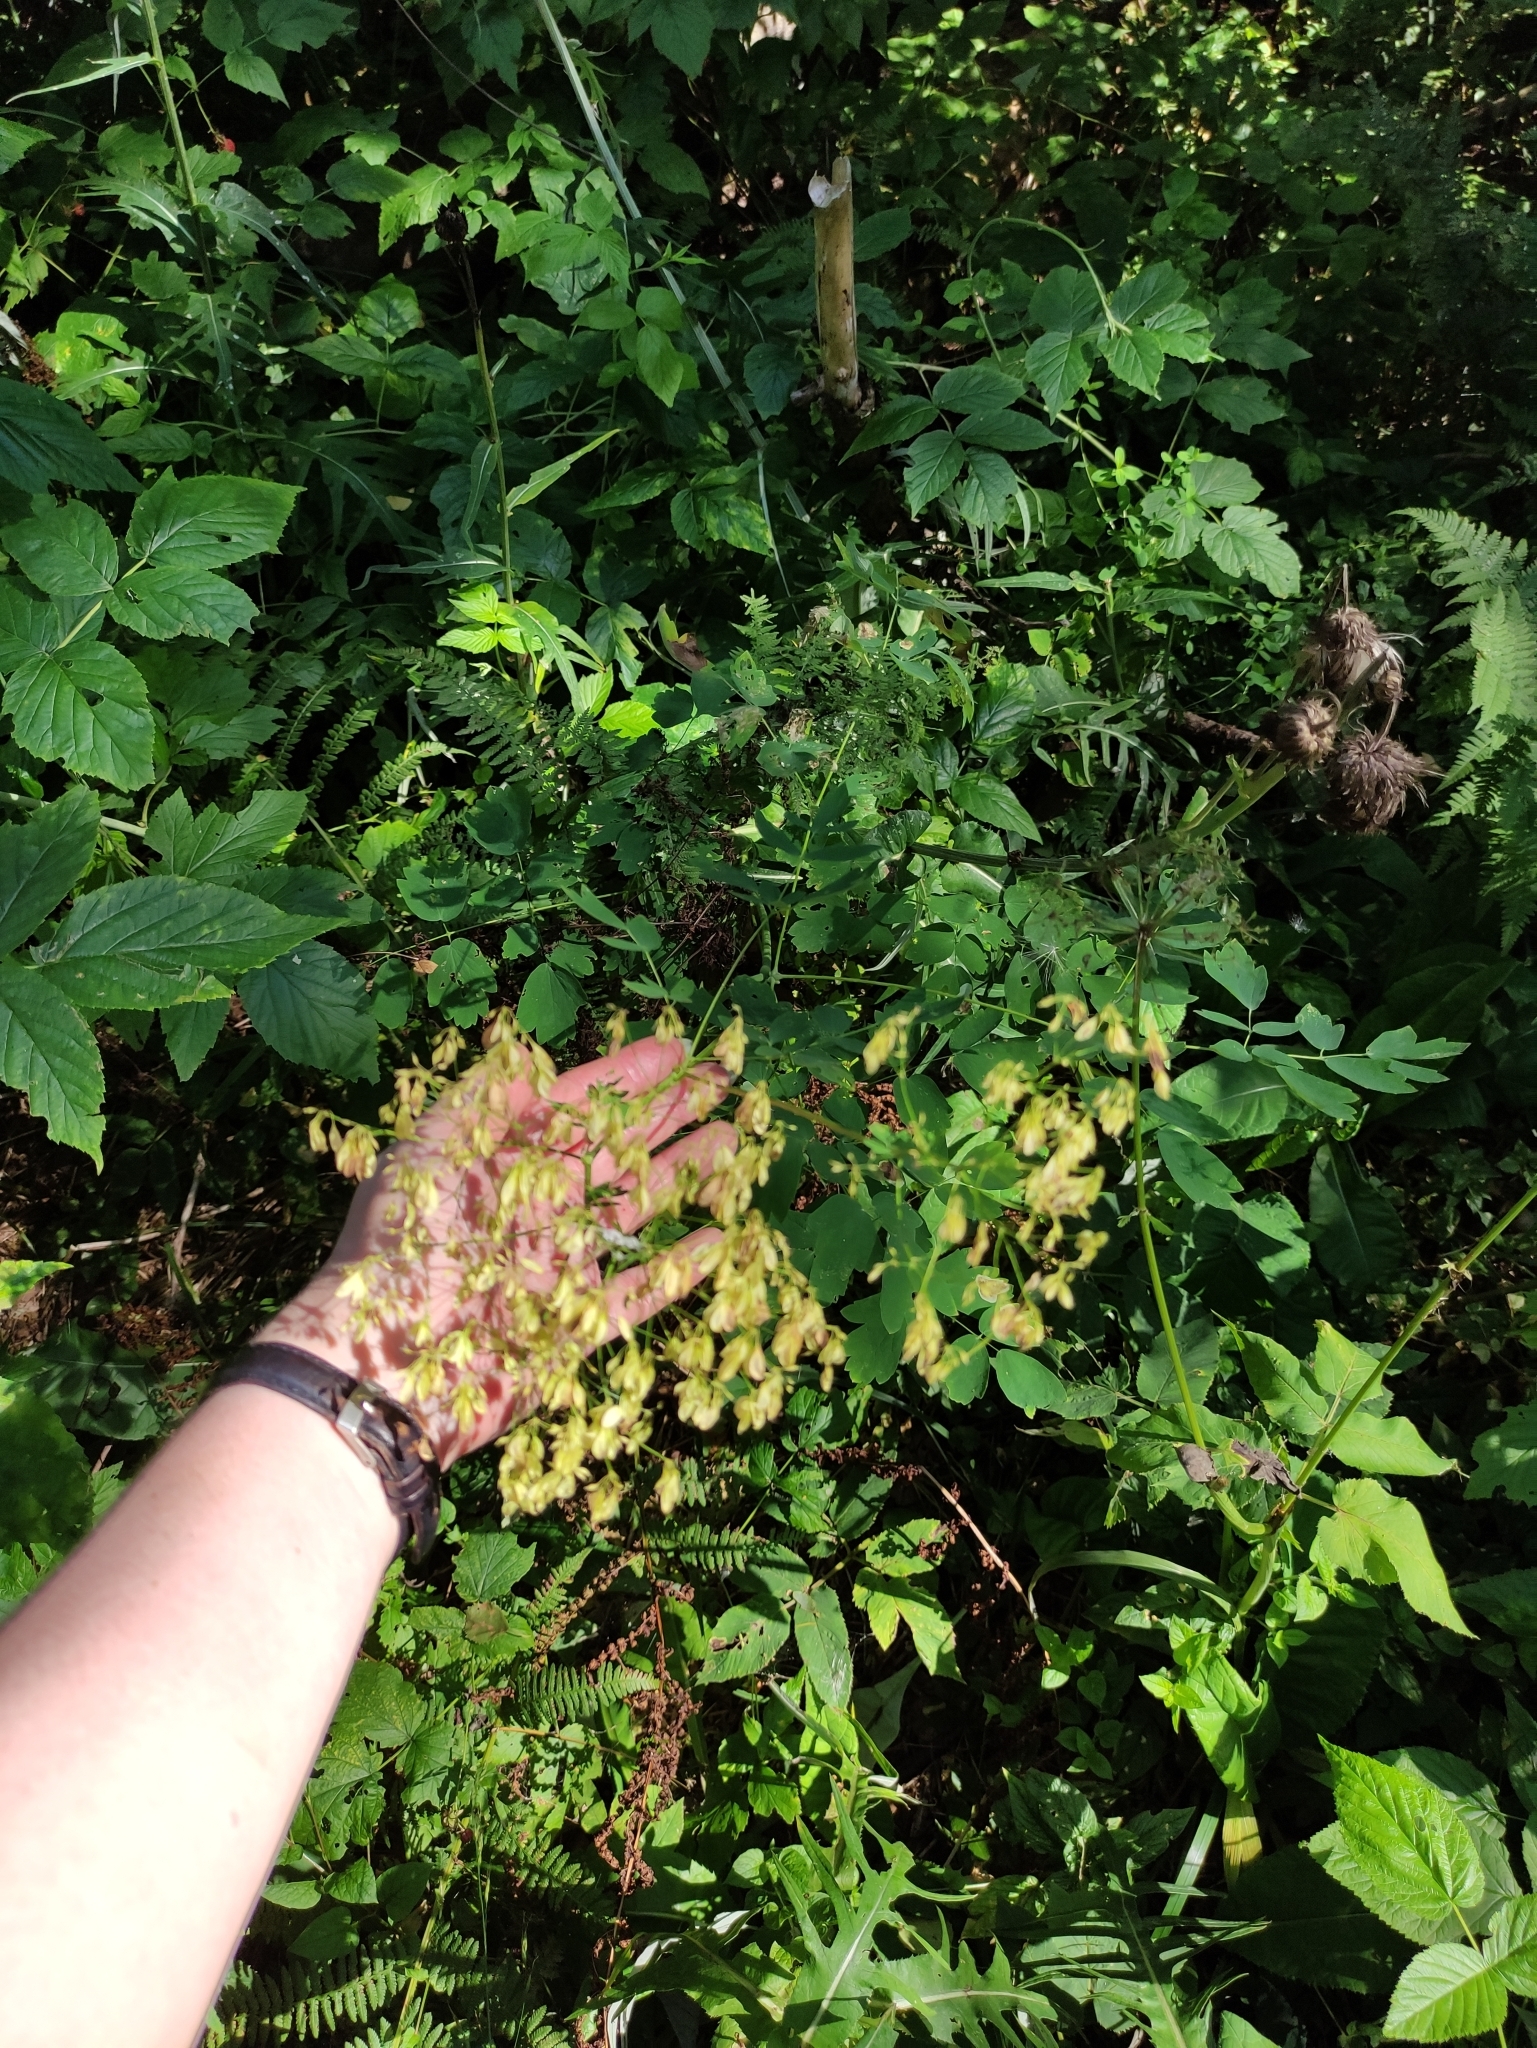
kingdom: Plantae
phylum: Tracheophyta
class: Magnoliopsida
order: Ranunculales
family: Ranunculaceae
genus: Thalictrum
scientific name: Thalictrum aquilegiifolium
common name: French meadow-rue
